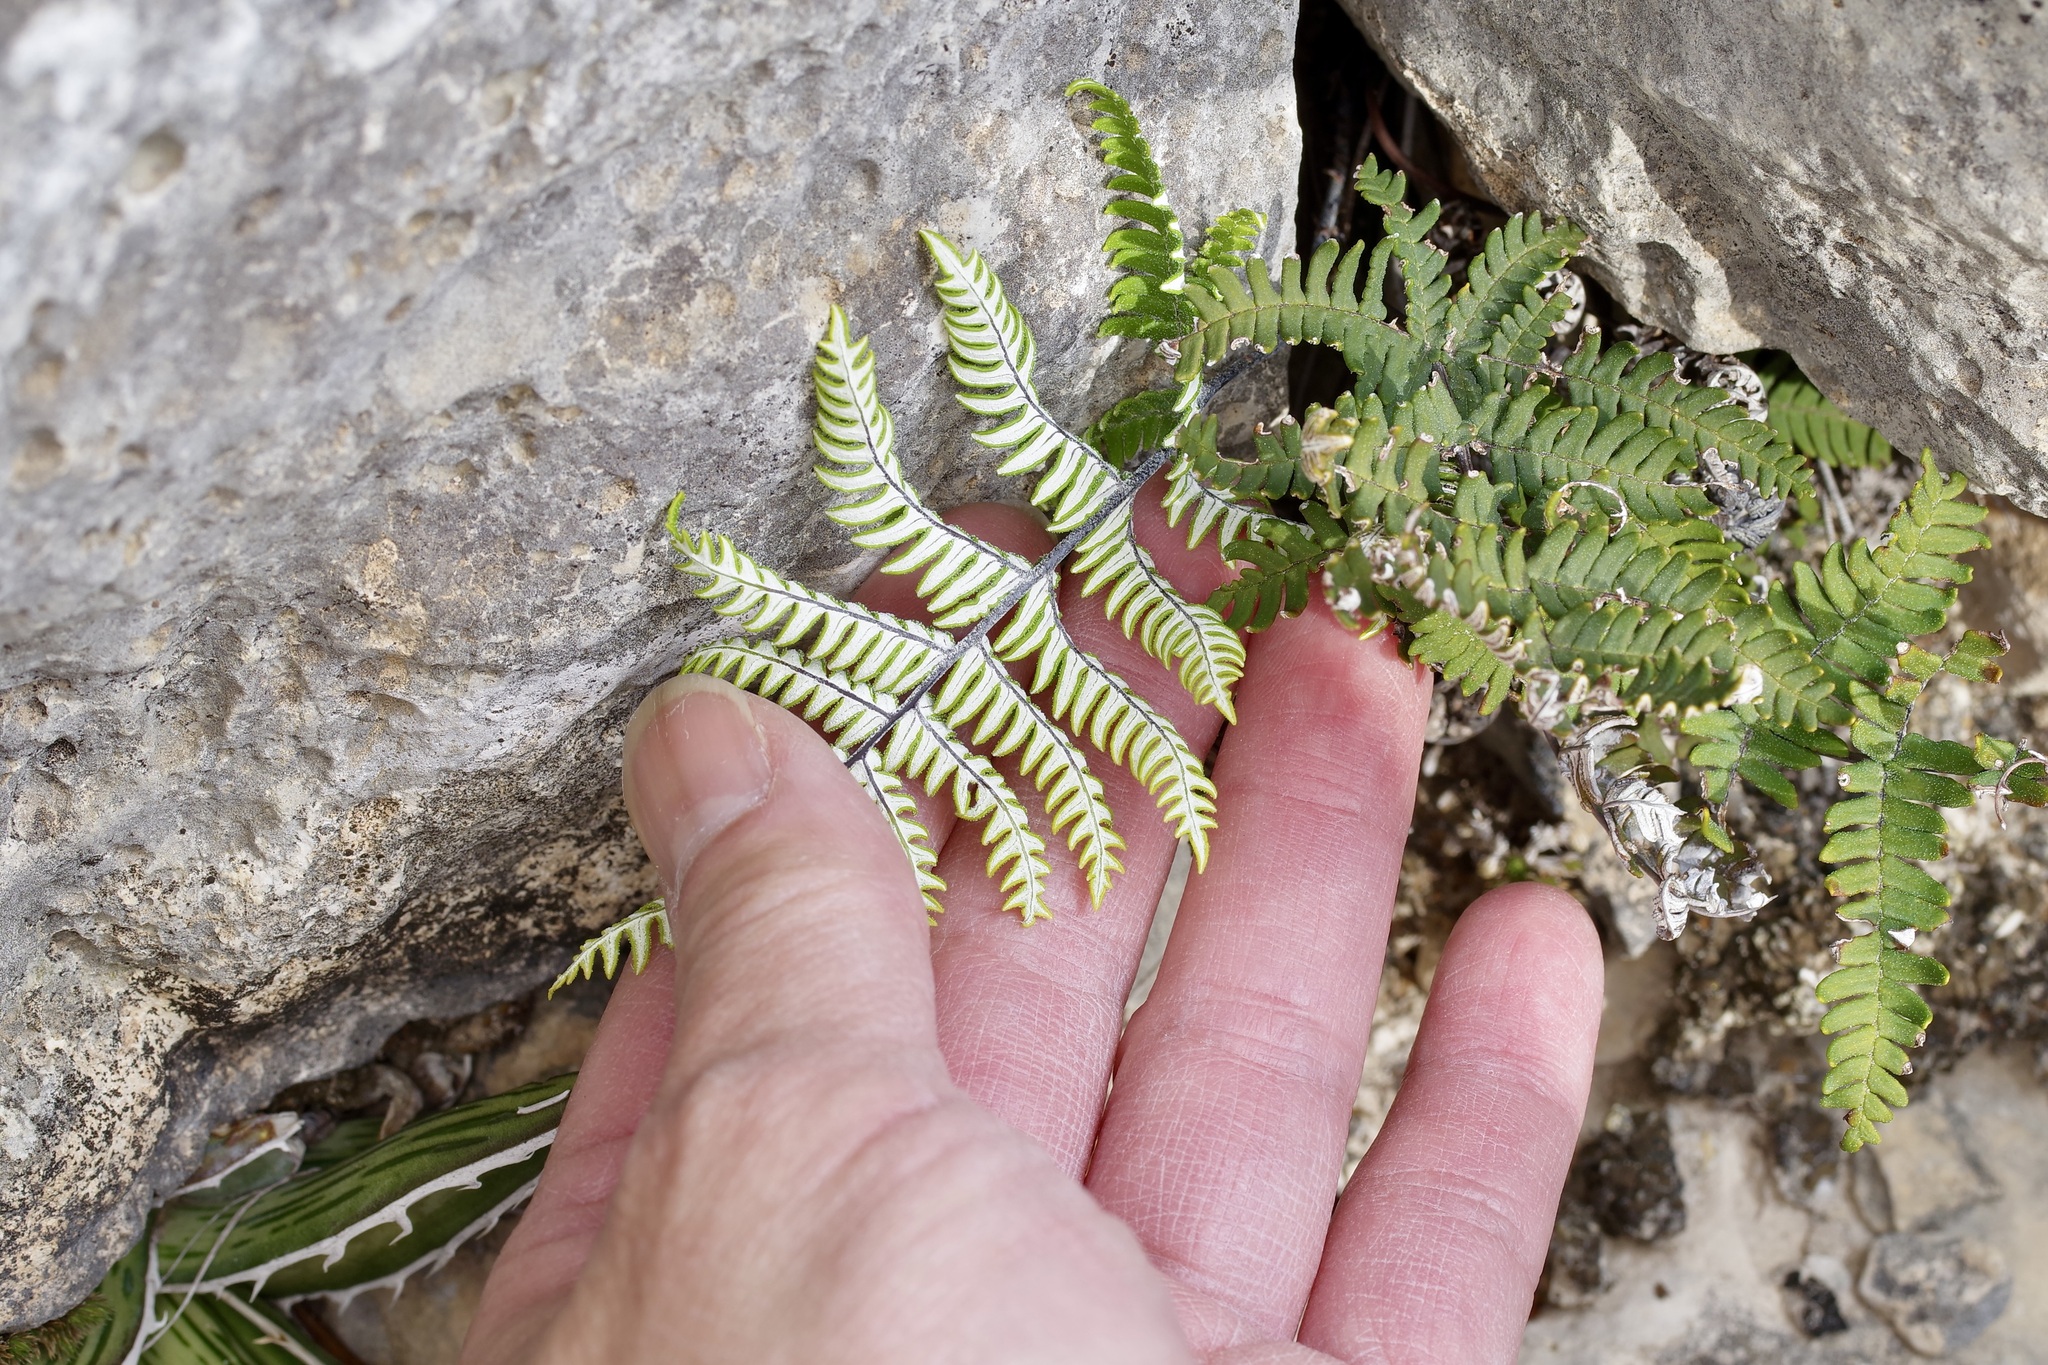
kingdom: Plantae
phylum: Tracheophyta
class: Polypodiopsida
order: Polypodiales
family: Pteridaceae
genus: Notholaena
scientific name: Notholaena candida
